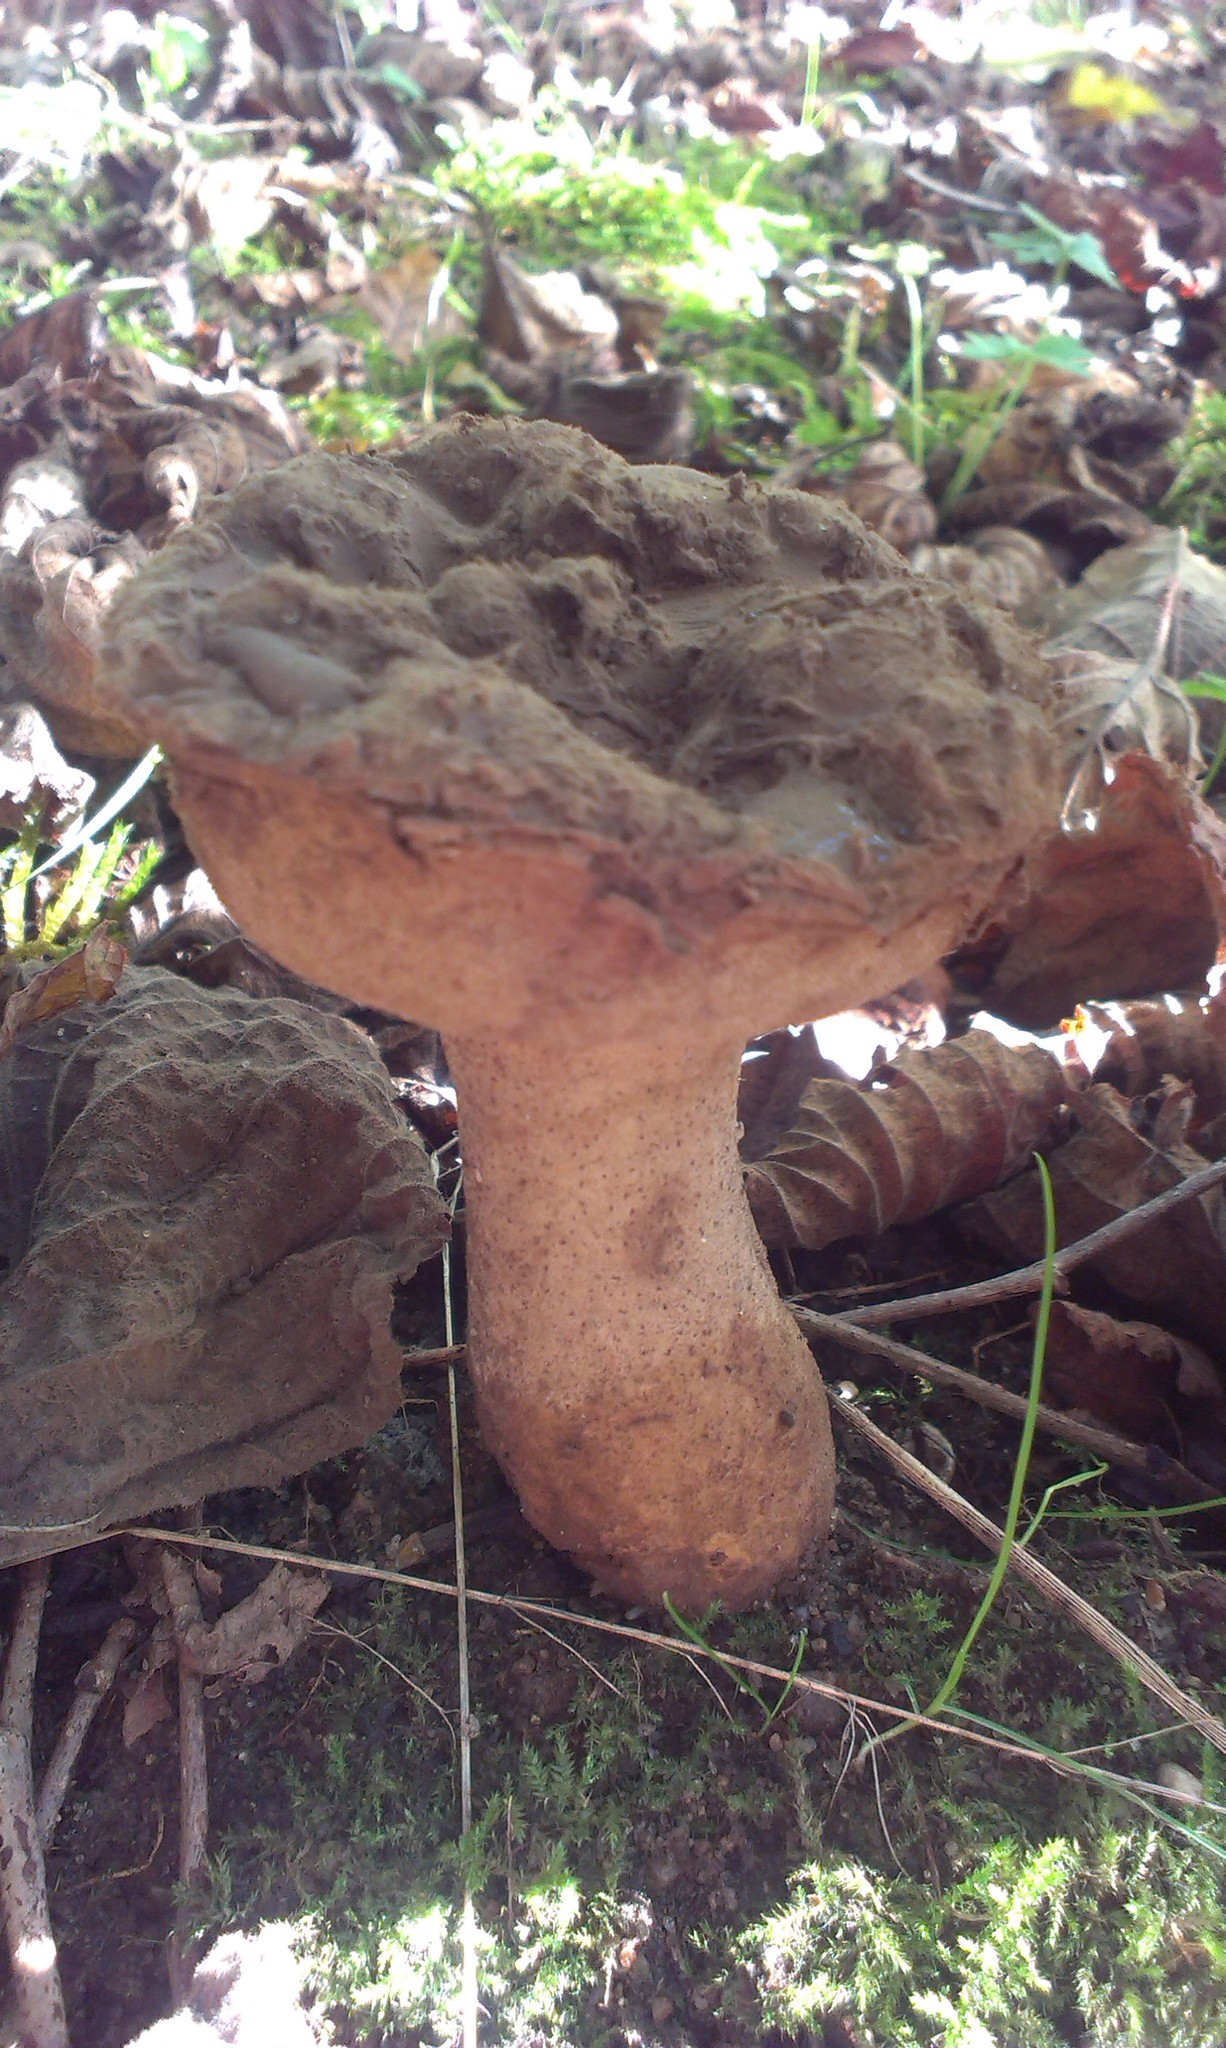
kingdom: Fungi
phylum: Basidiomycota
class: Agaricomycetes
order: Agaricales
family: Lycoperdaceae
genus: Lycoperdon
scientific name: Lycoperdon excipuliforme
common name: Pestle puffball
